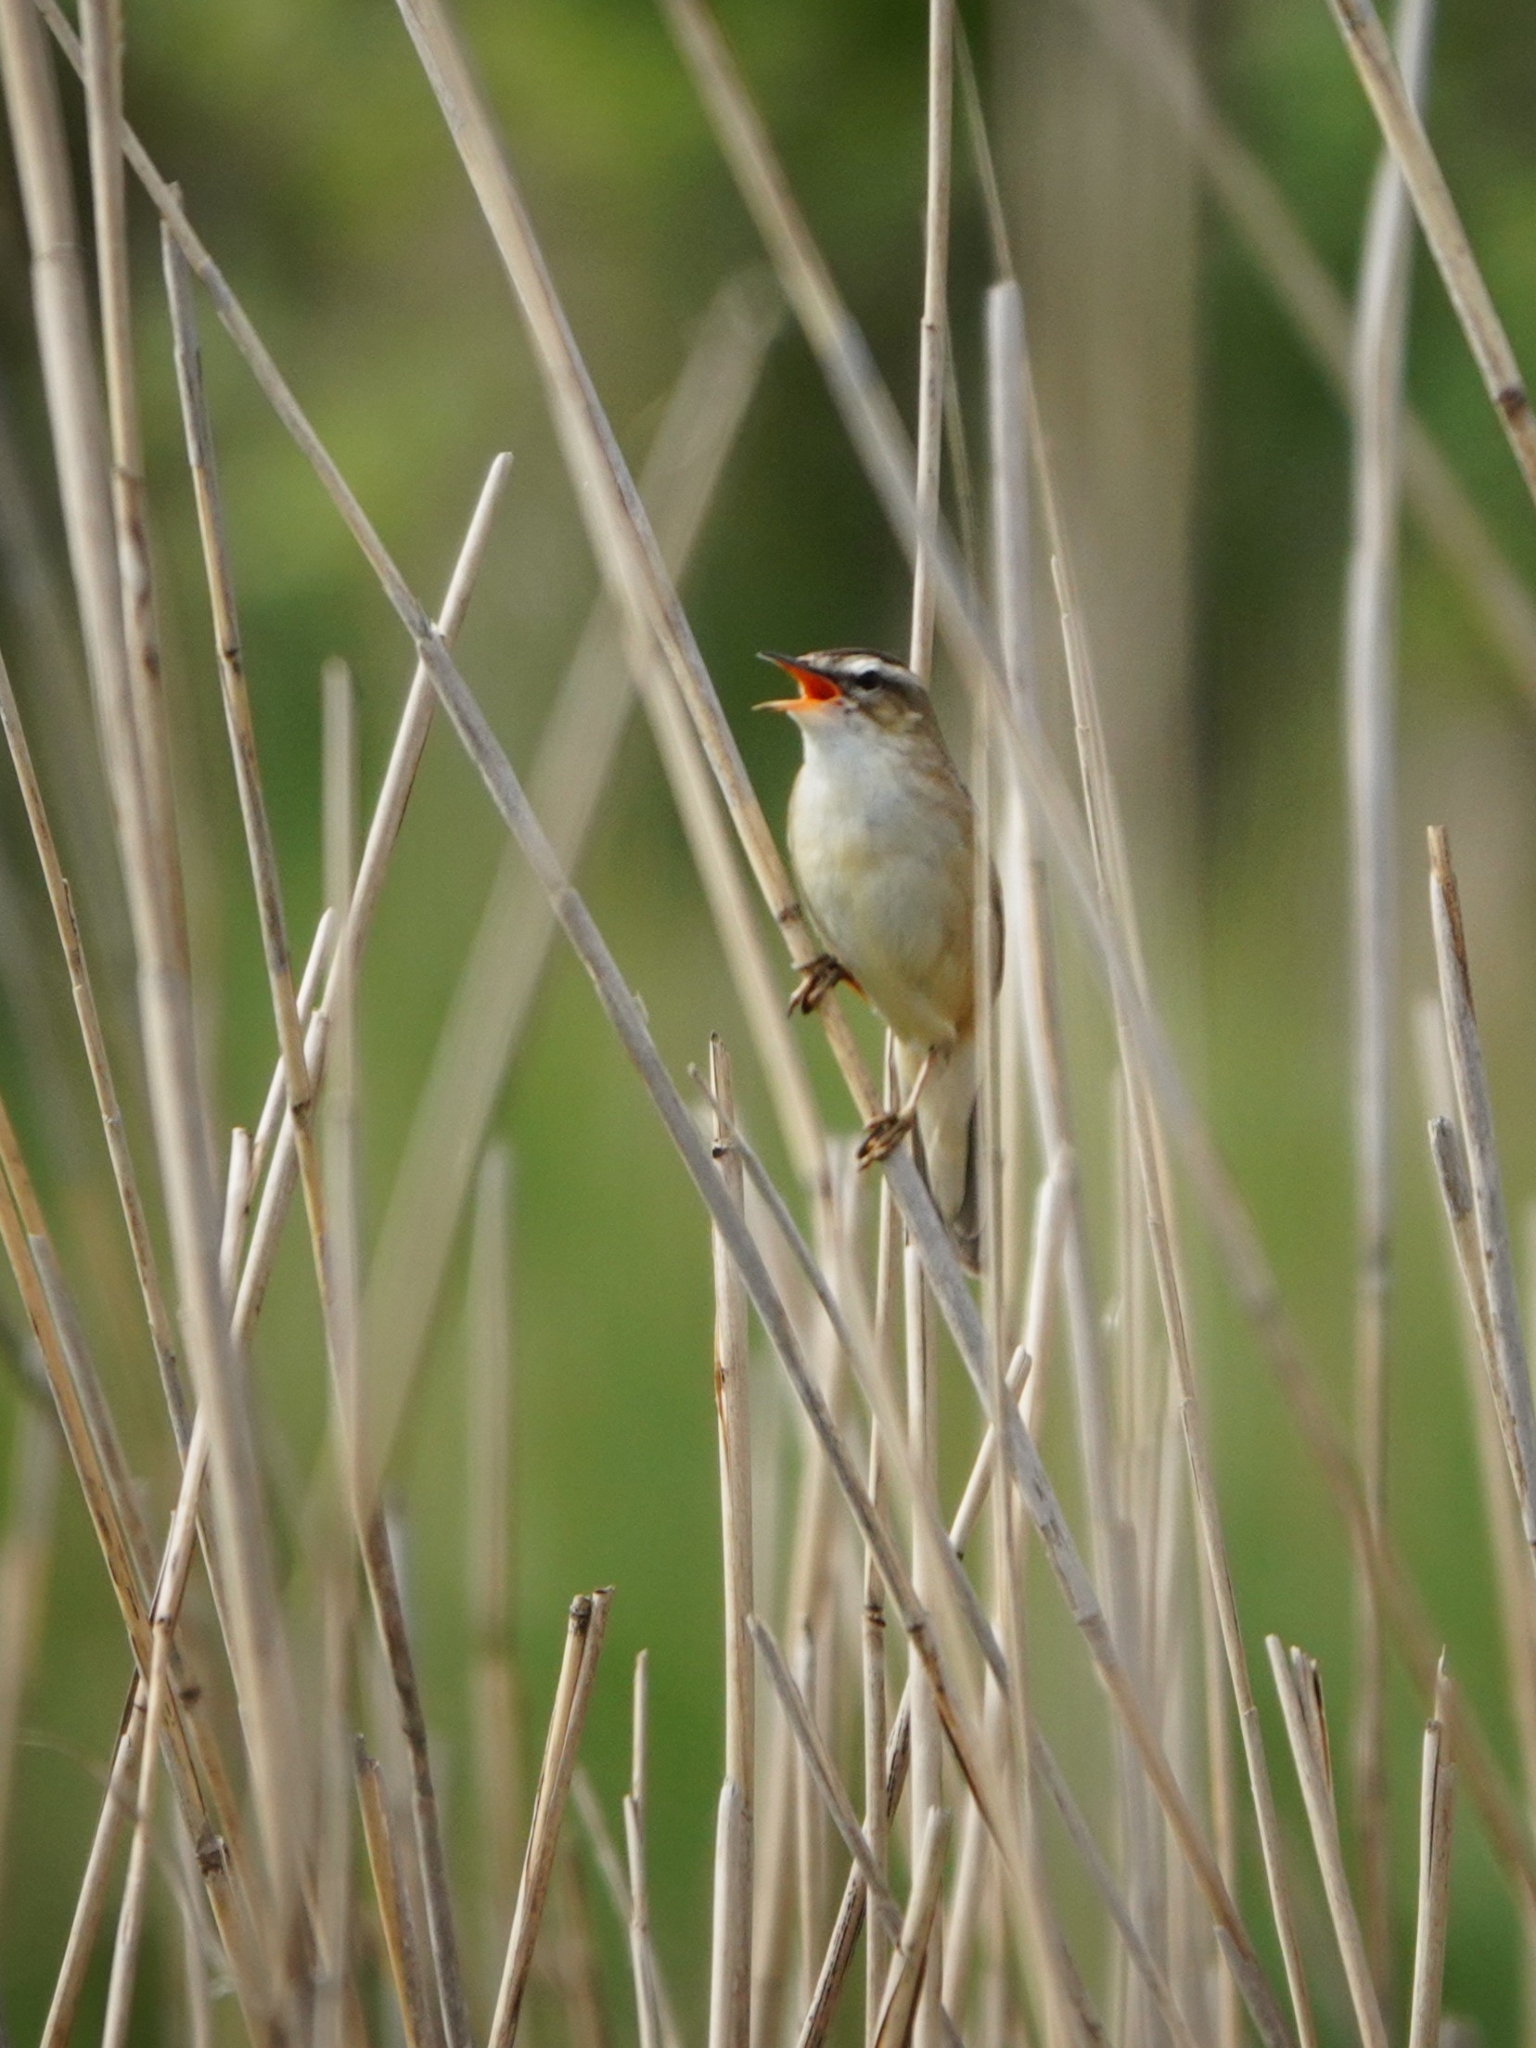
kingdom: Animalia
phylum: Chordata
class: Aves
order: Passeriformes
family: Acrocephalidae
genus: Acrocephalus
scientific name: Acrocephalus schoenobaenus
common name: Sedge warbler
